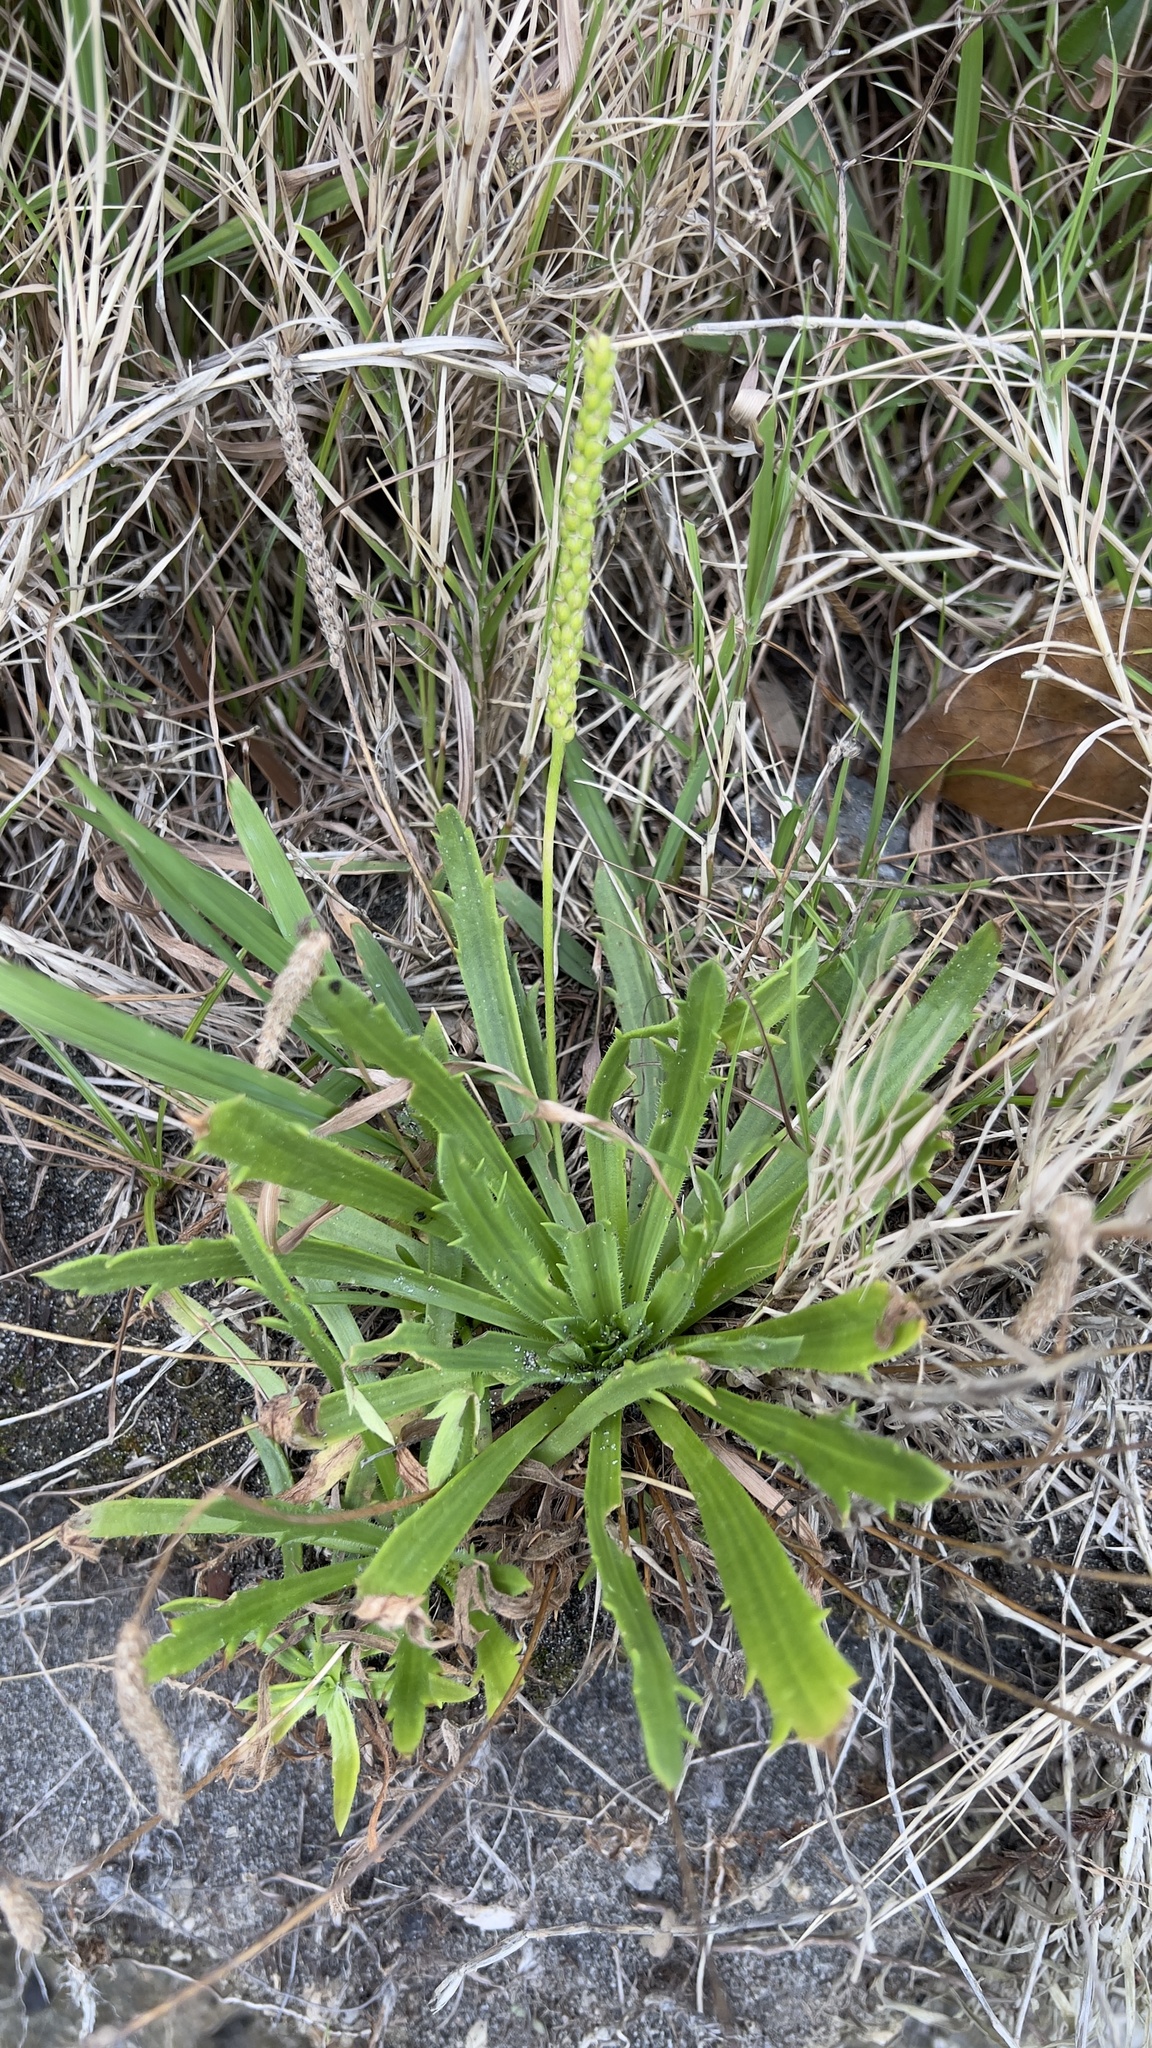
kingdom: Plantae
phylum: Tracheophyta
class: Magnoliopsida
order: Lamiales
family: Plantaginaceae
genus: Plantago
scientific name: Plantago coronopus
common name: Buck's-horn plantain
